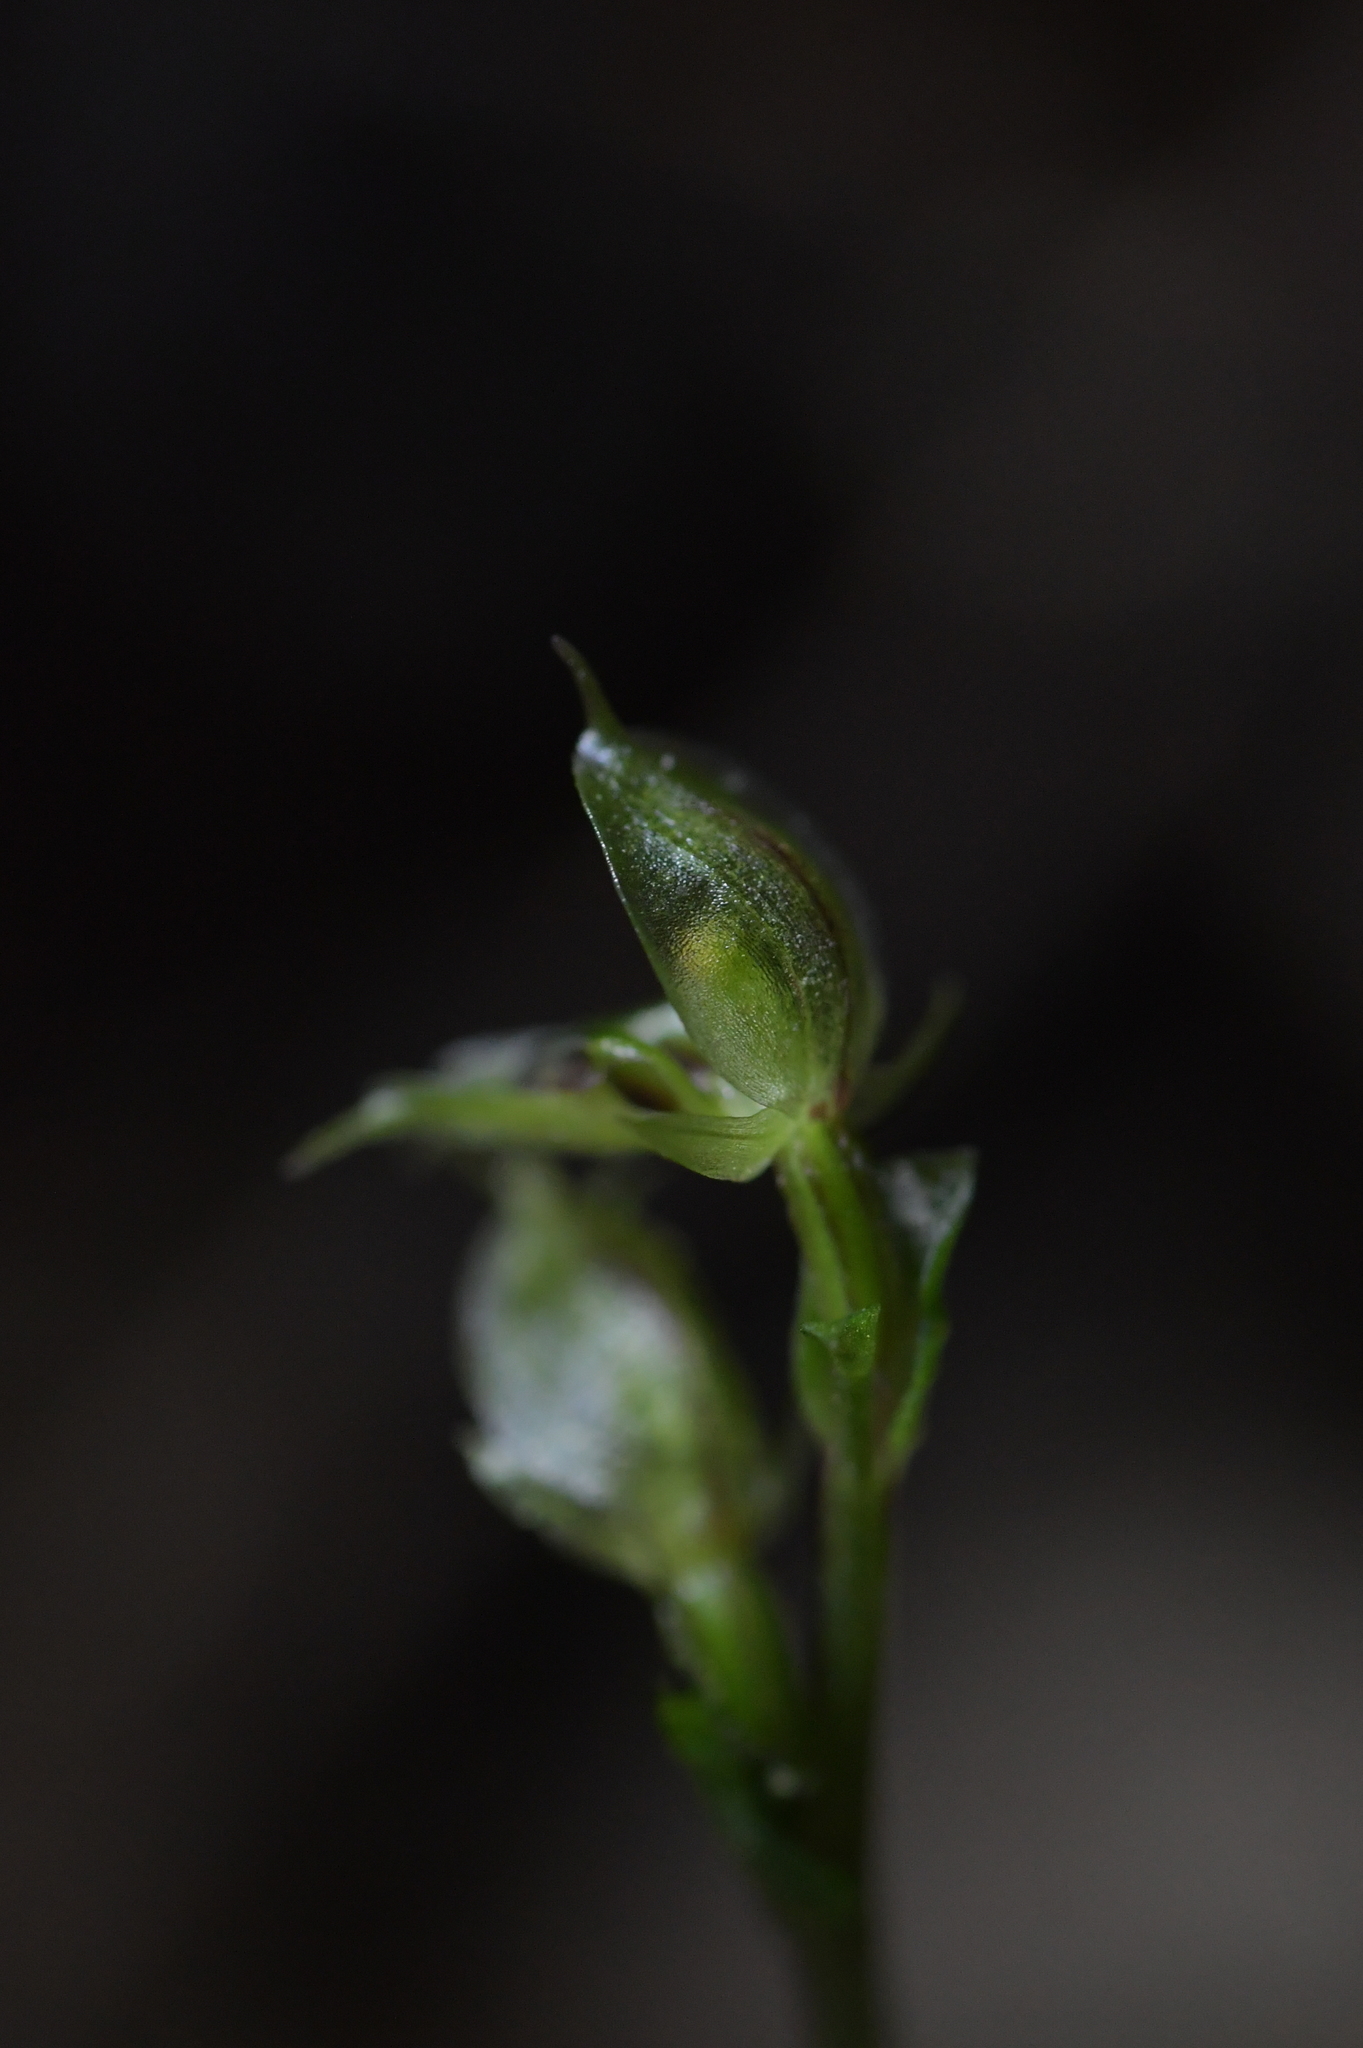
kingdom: Plantae
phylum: Tracheophyta
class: Liliopsida
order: Asparagales
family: Orchidaceae
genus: Acianthus
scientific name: Acianthus sinclairii
